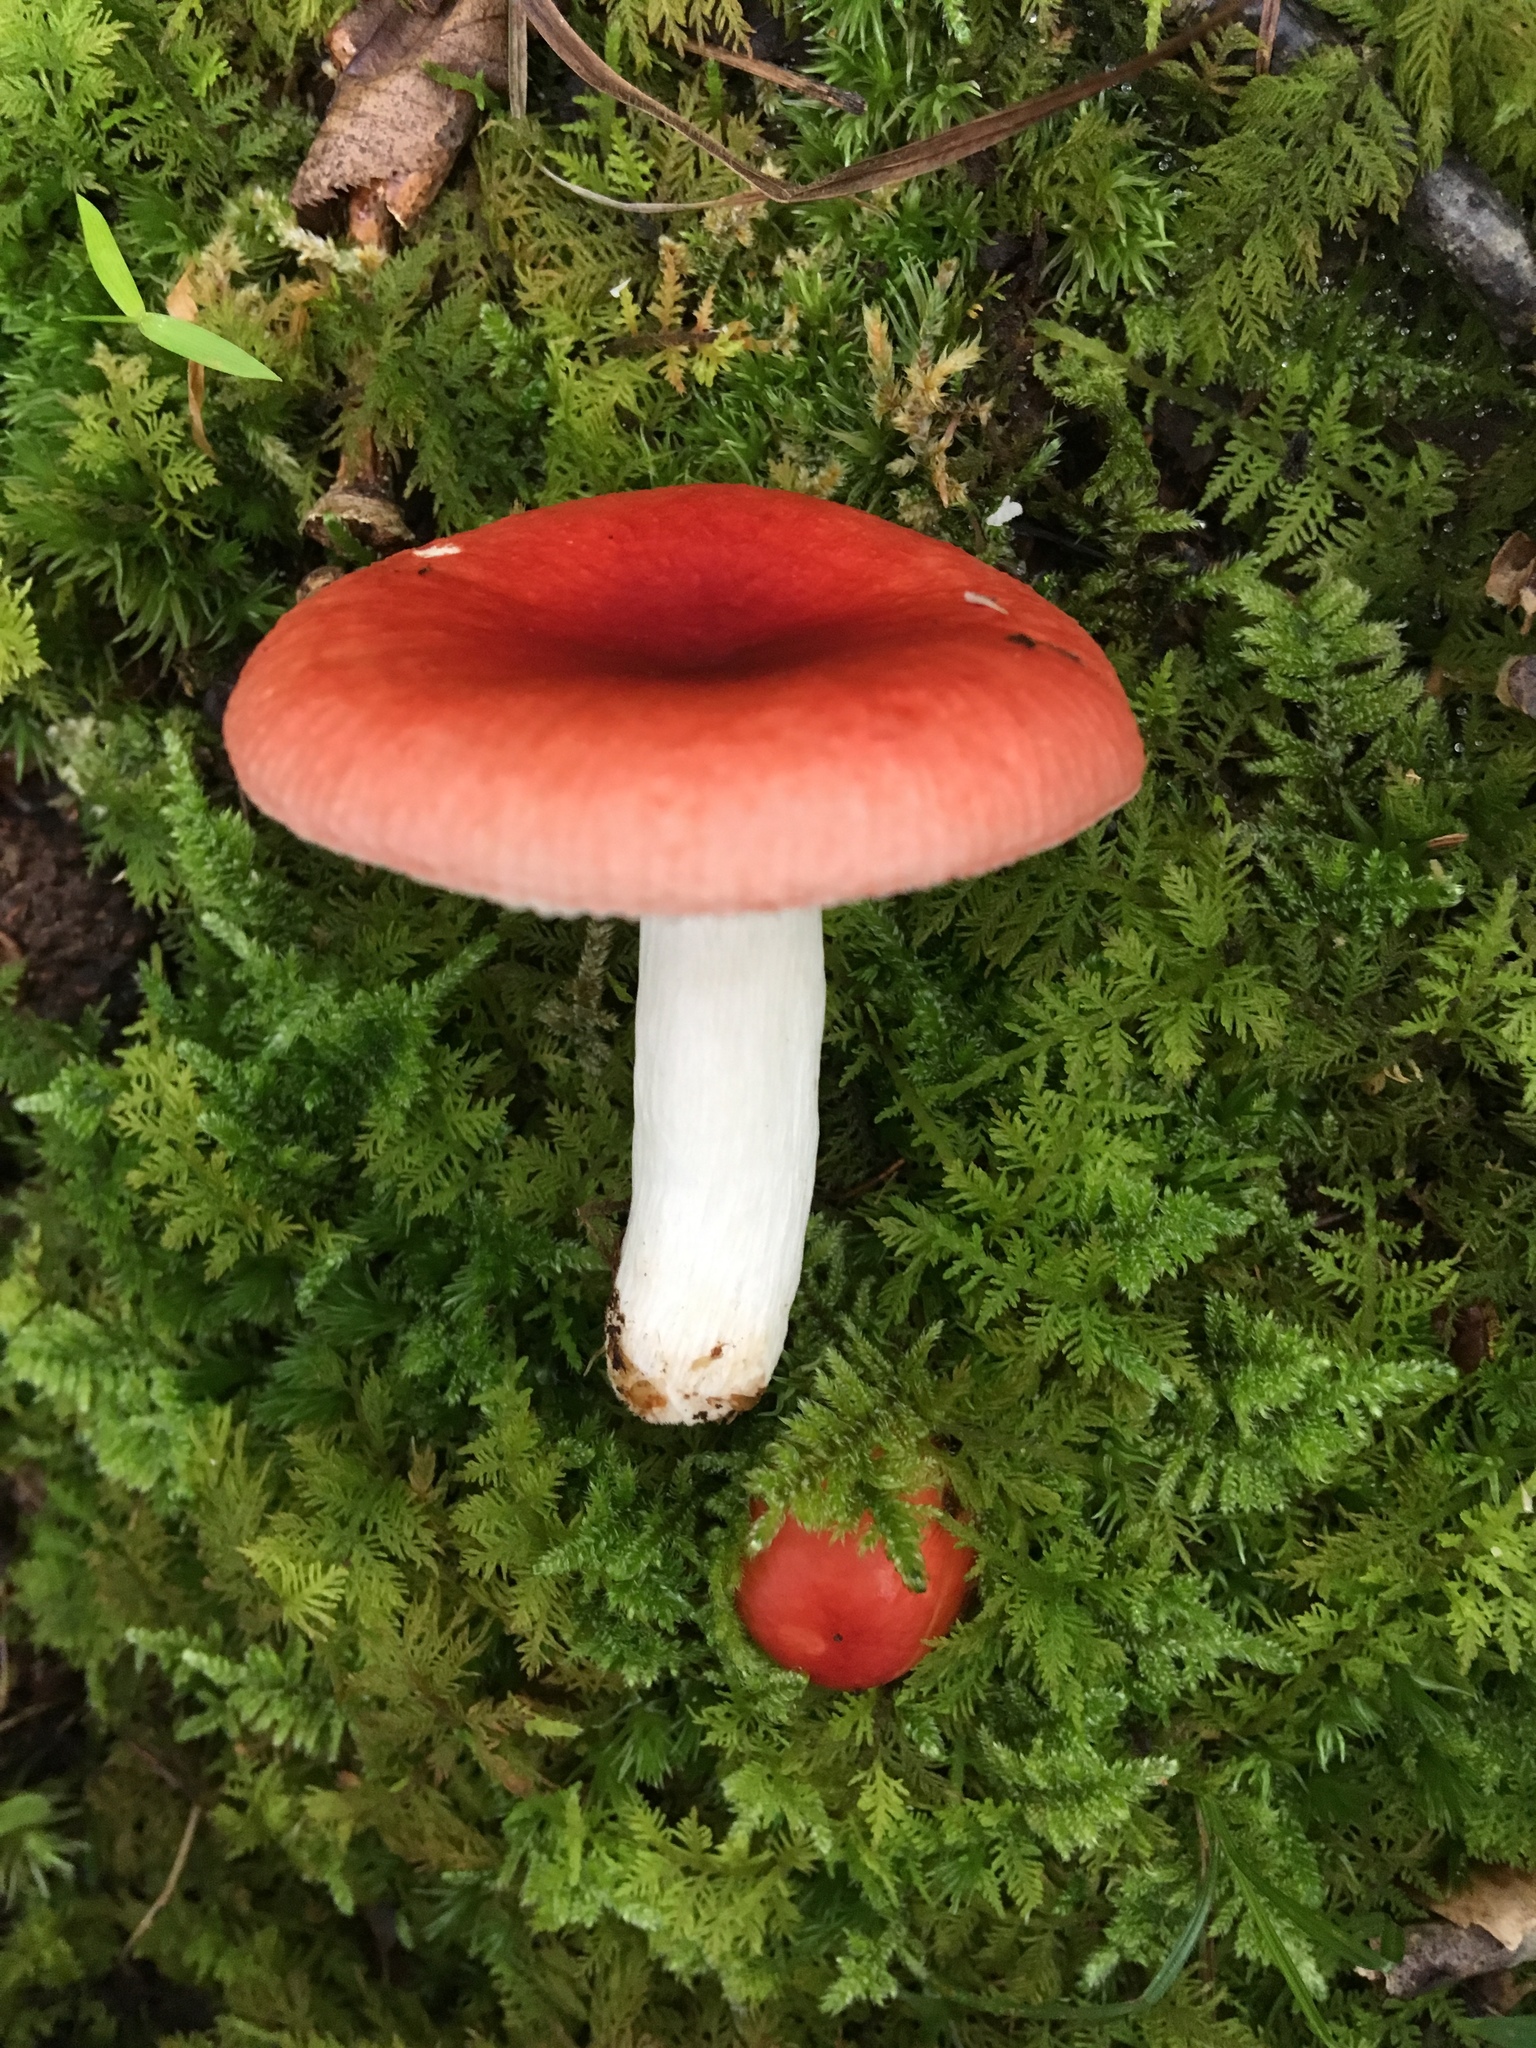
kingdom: Fungi
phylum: Basidiomycota
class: Agaricomycetes
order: Russulales
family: Russulaceae
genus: Russula
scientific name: Russula subsulphurea
